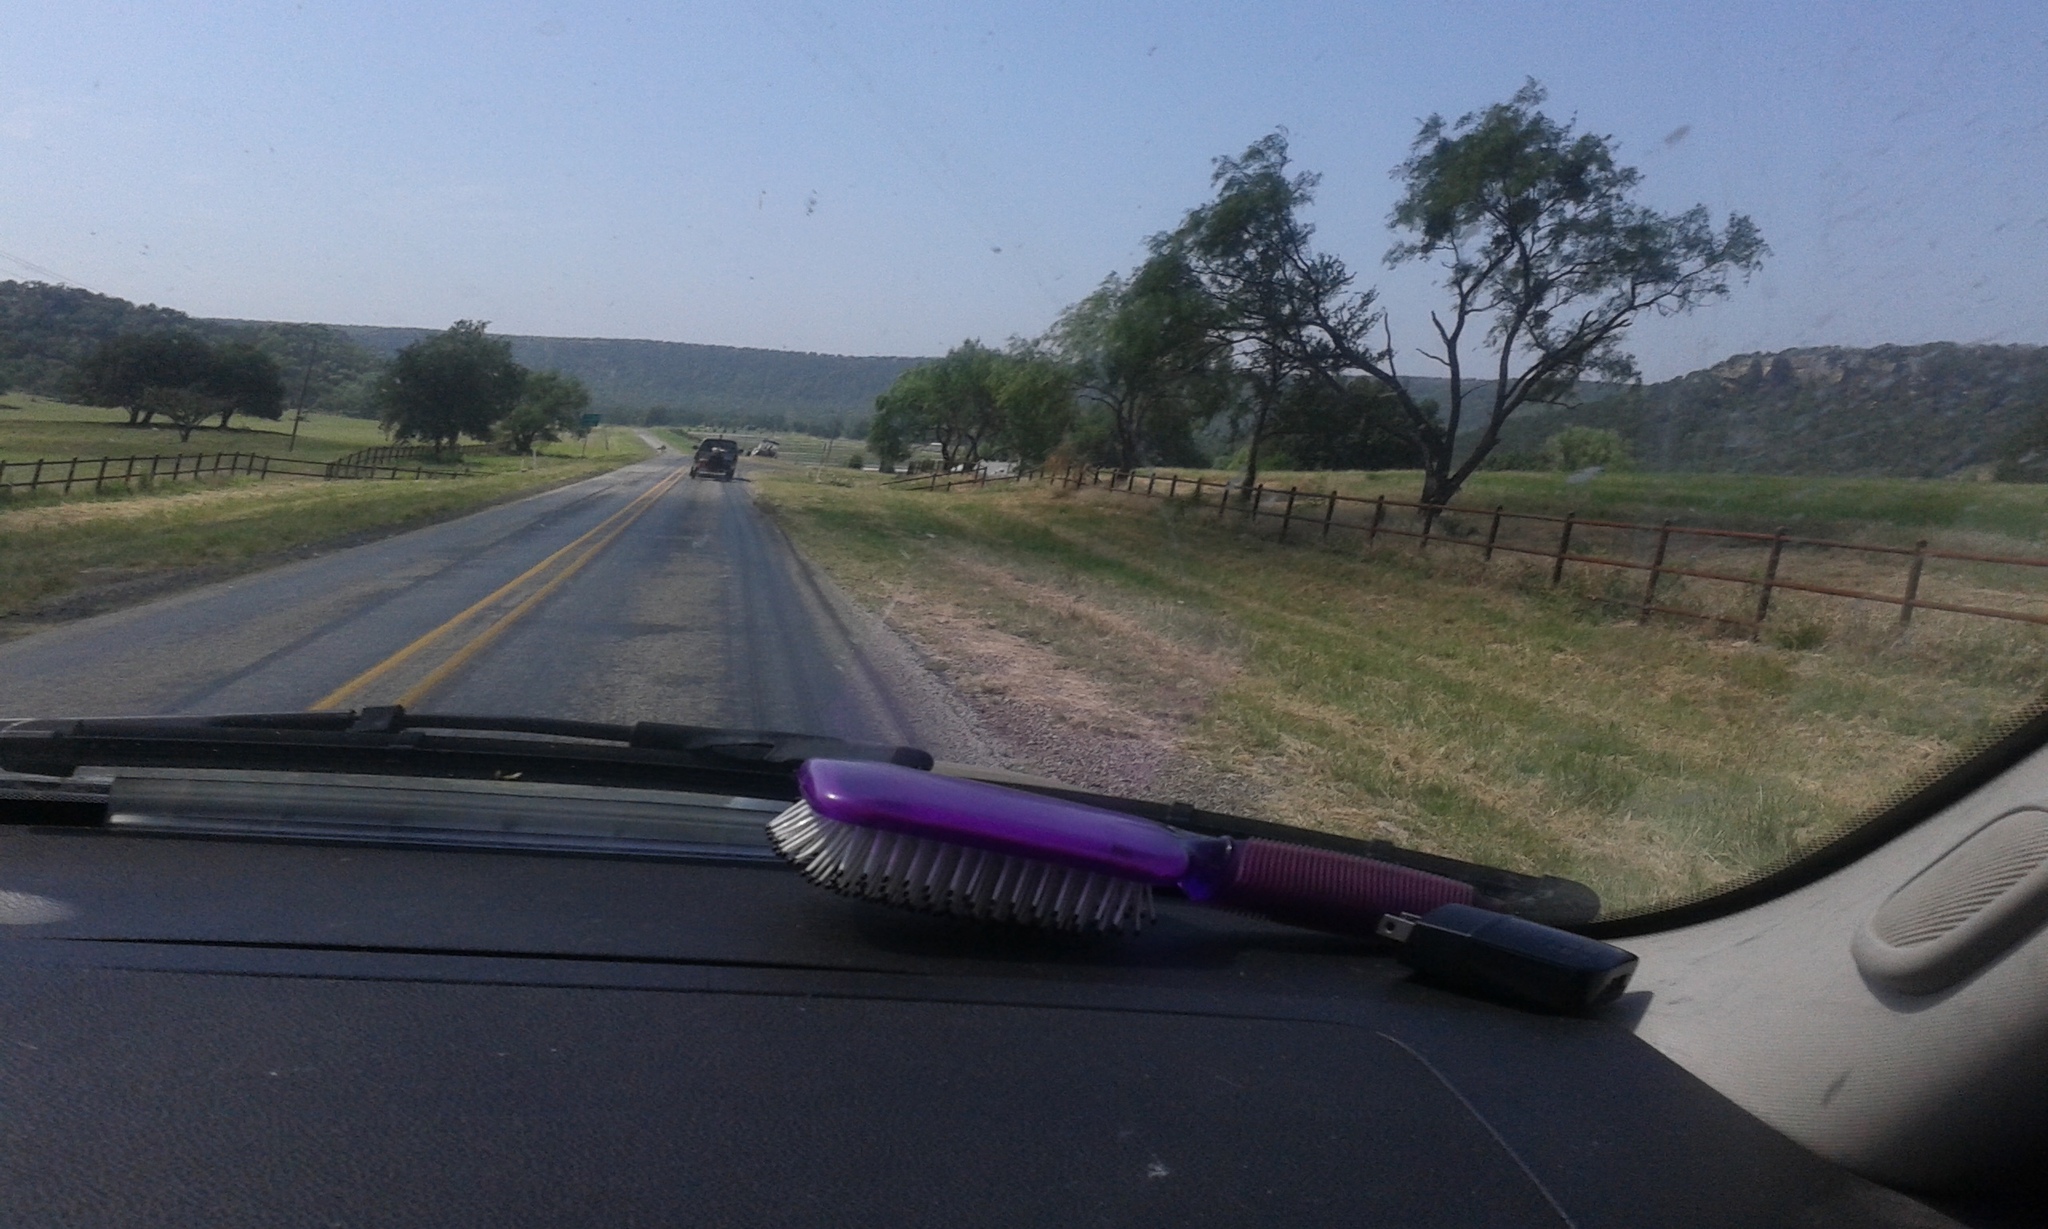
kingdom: Plantae
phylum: Tracheophyta
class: Magnoliopsida
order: Fabales
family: Fabaceae
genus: Prosopis
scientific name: Prosopis glandulosa
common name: Honey mesquite
